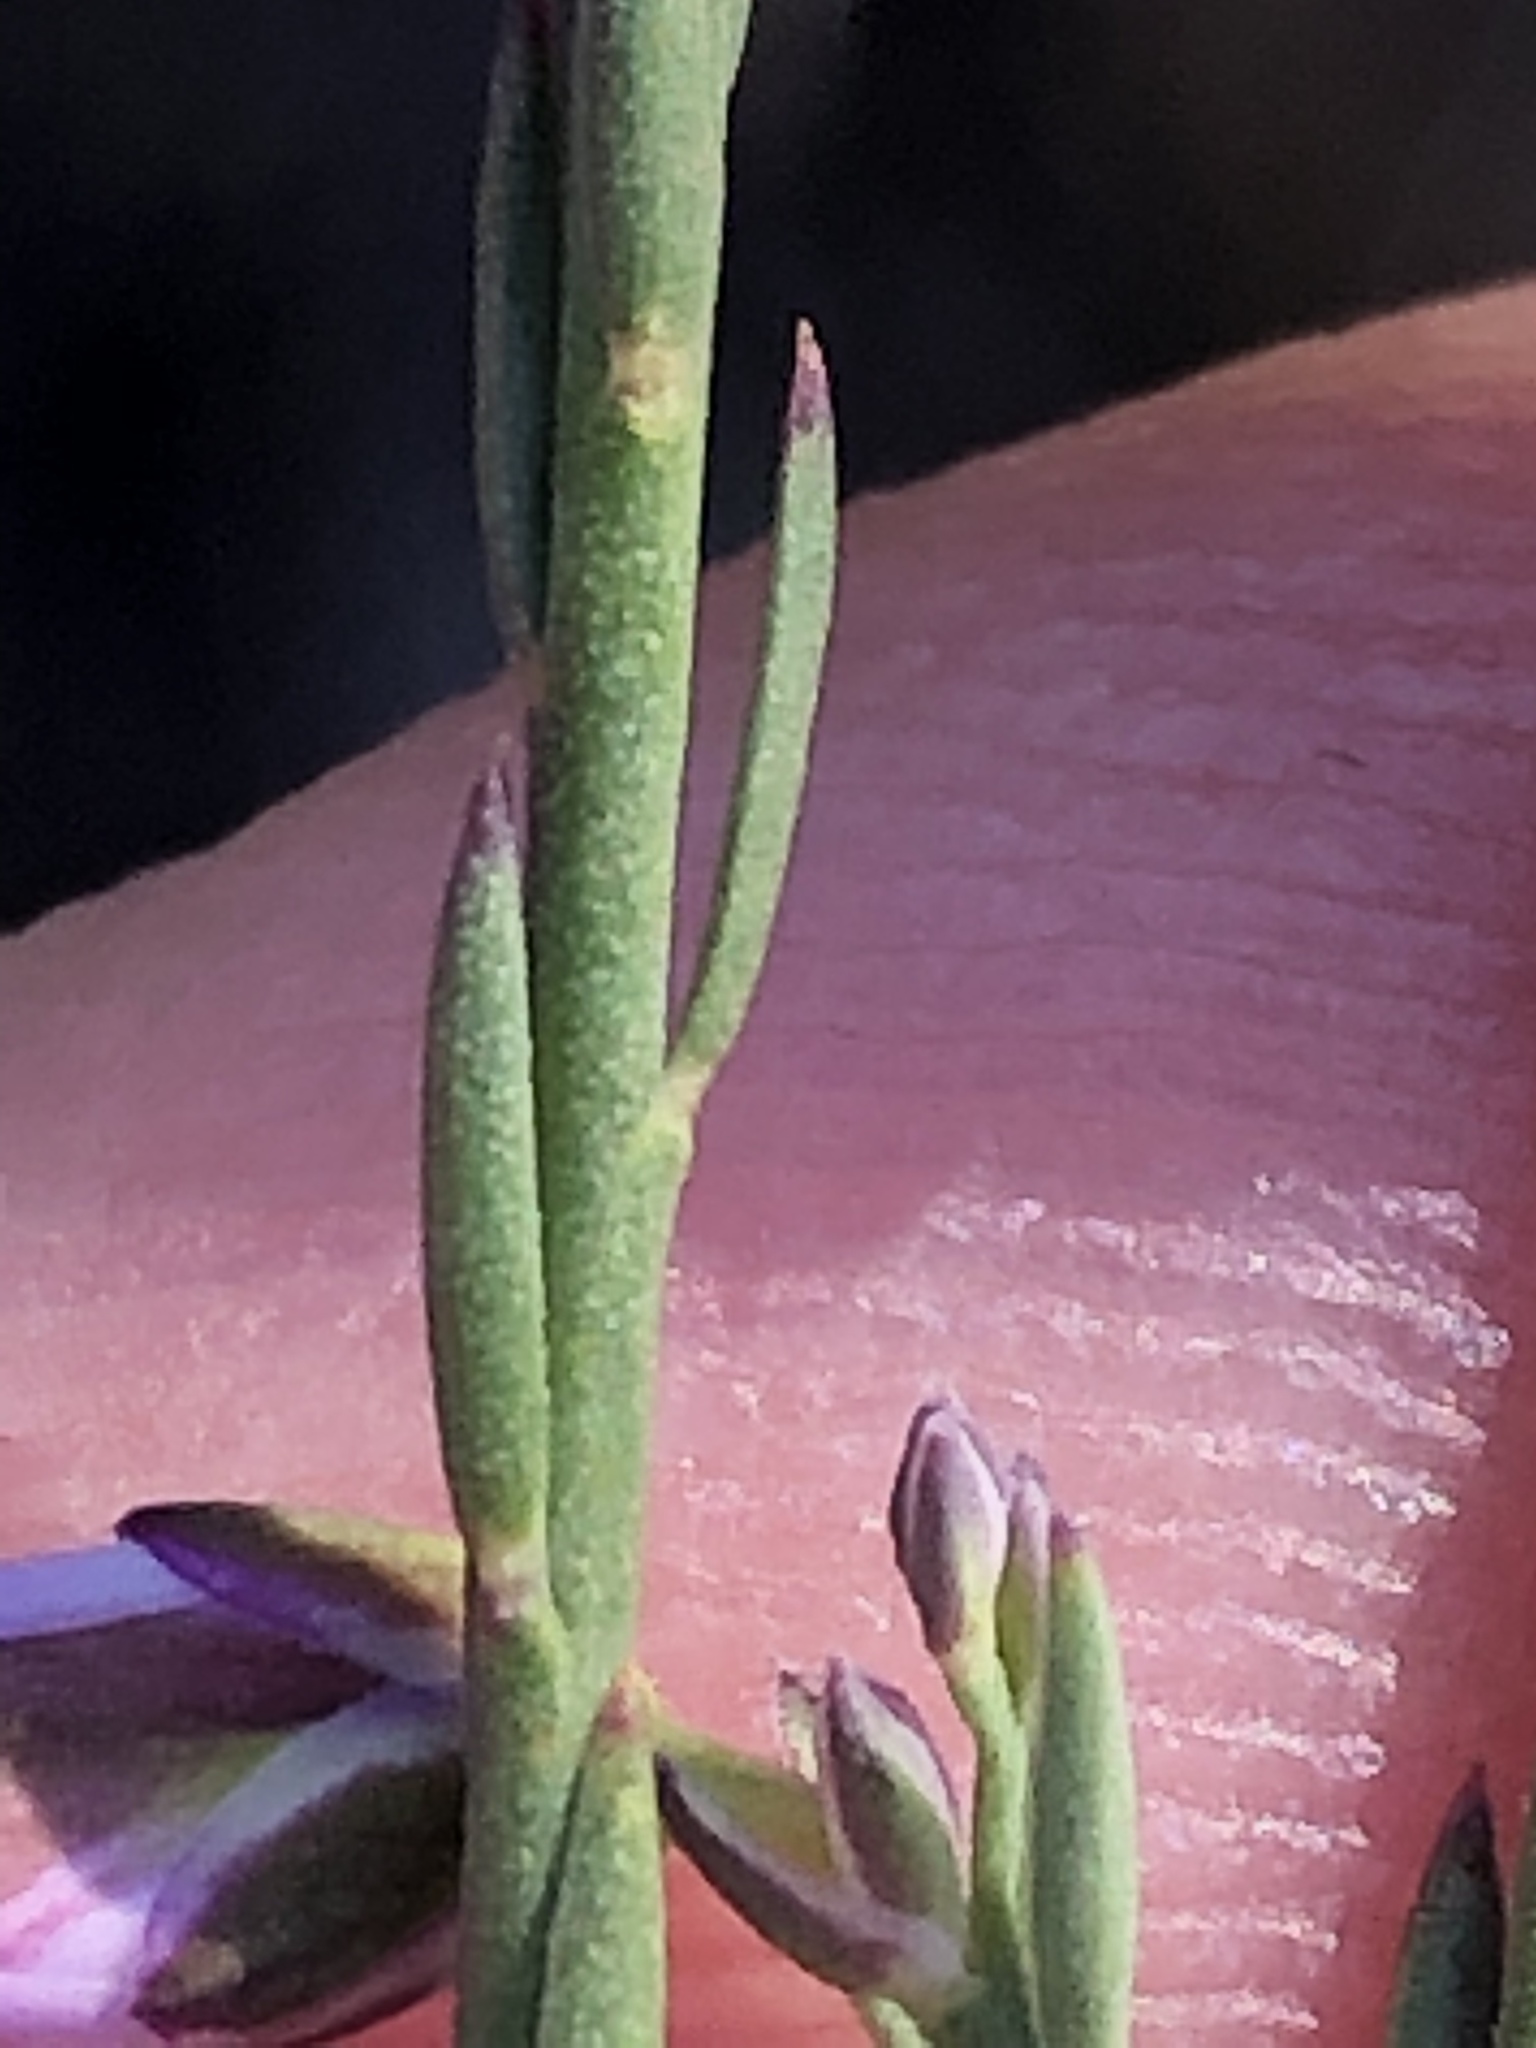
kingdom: Plantae
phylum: Tracheophyta
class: Magnoliopsida
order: Fabales
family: Polygalaceae
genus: Polygala
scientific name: Polygala microlopha
